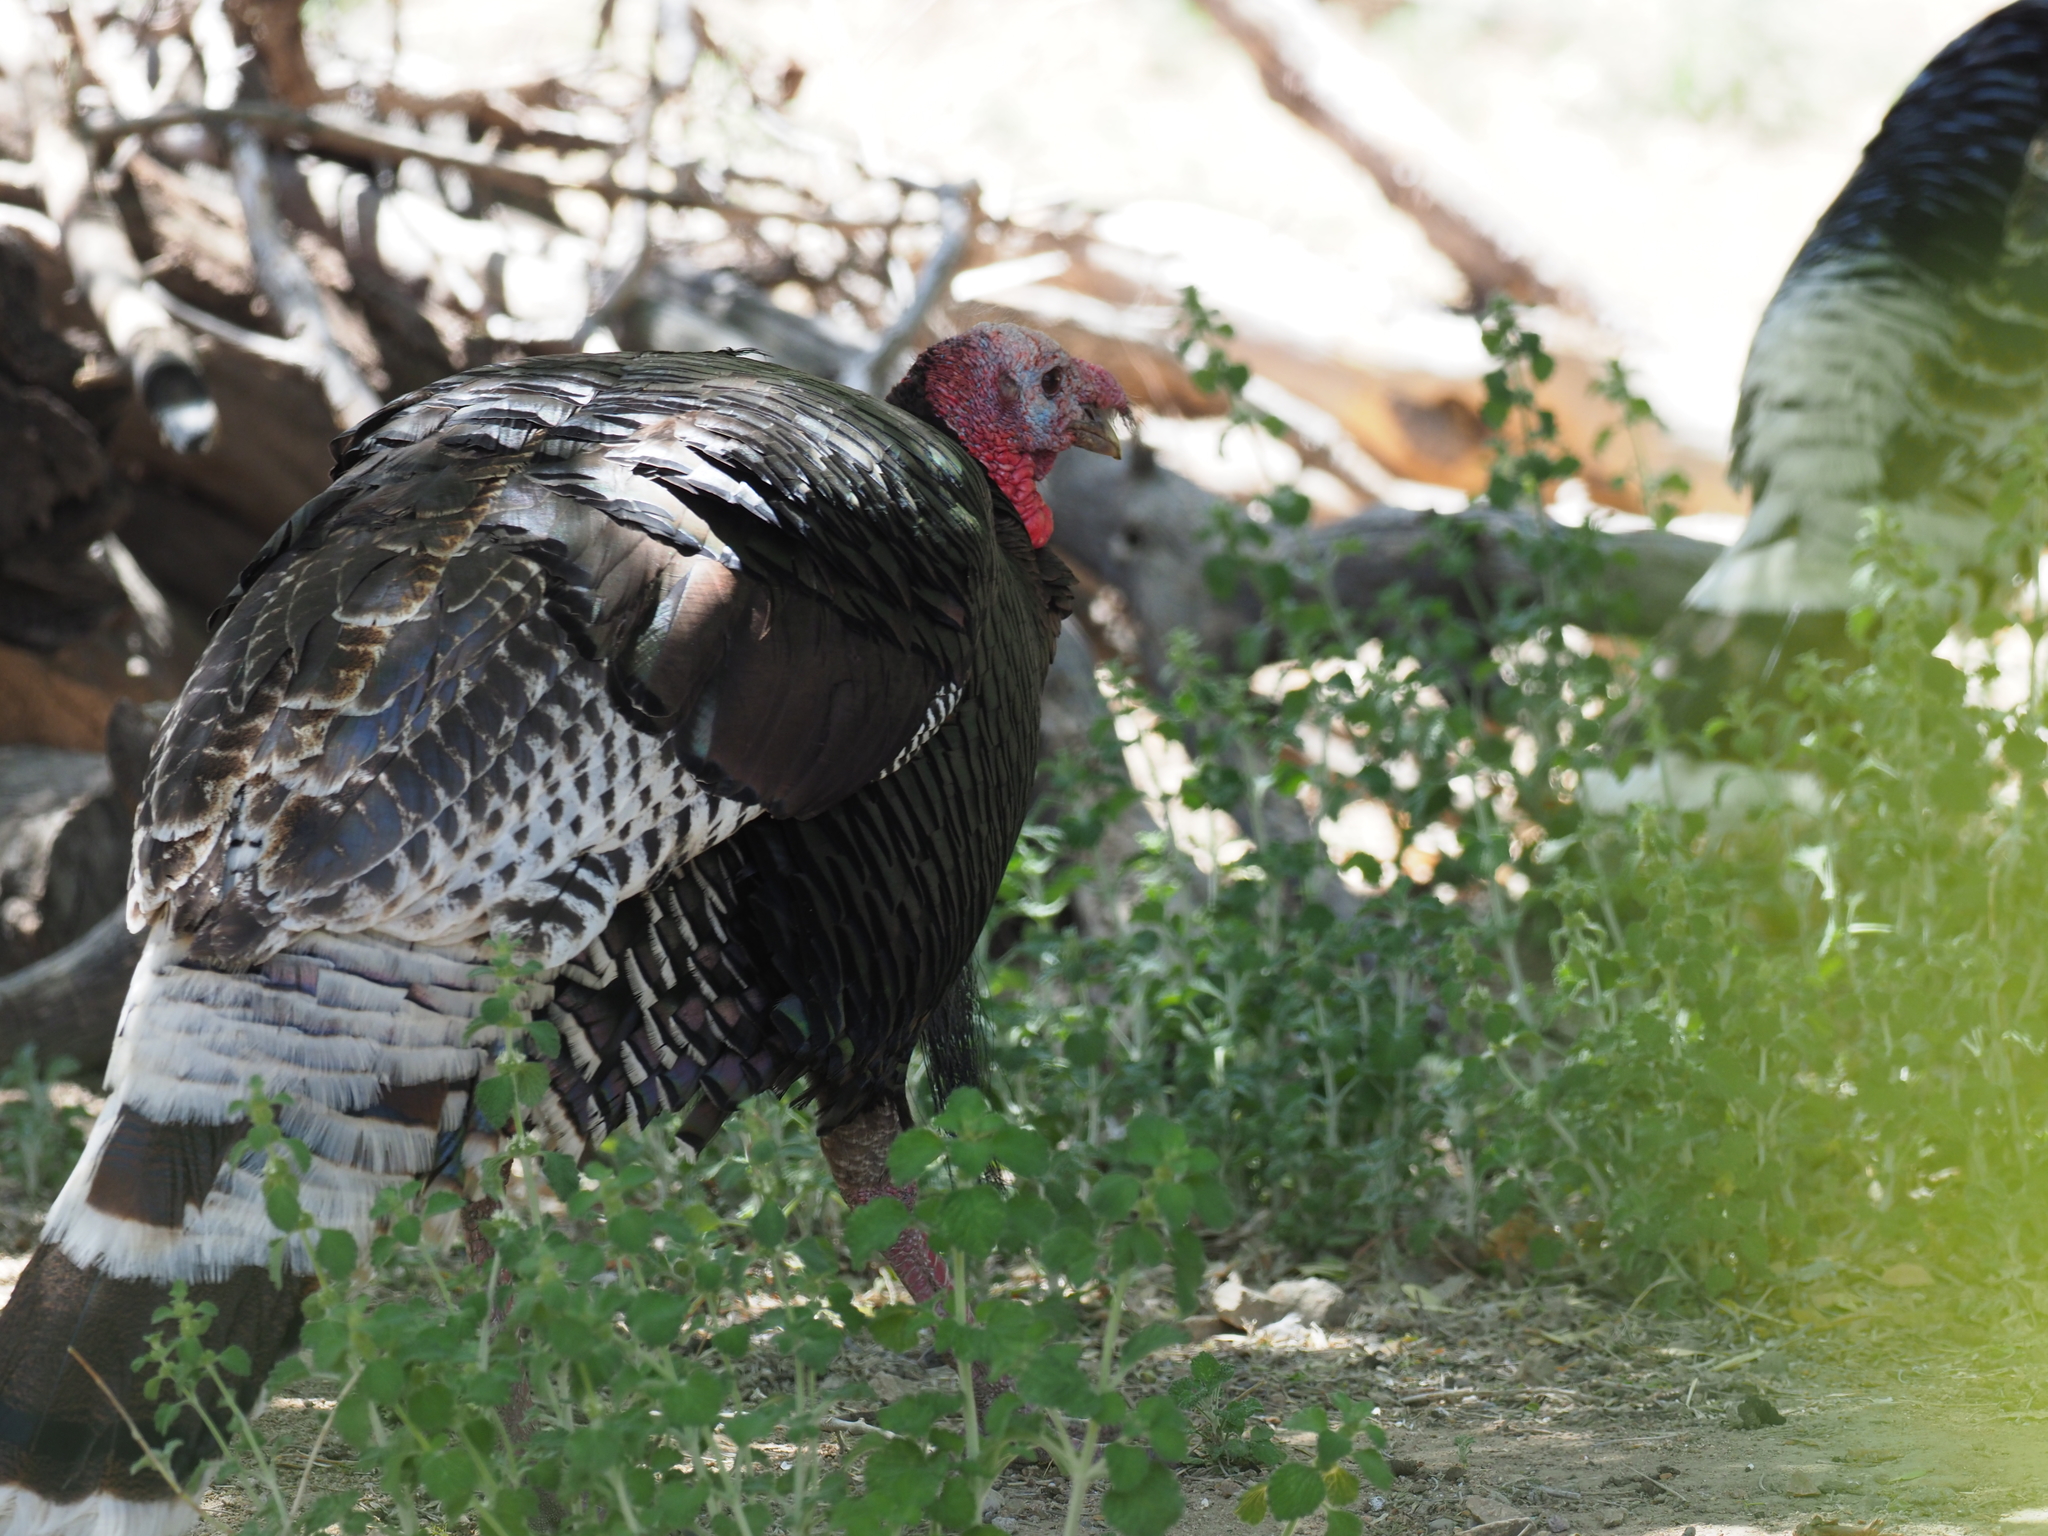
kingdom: Animalia
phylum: Chordata
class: Aves
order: Galliformes
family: Phasianidae
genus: Meleagris
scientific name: Meleagris gallopavo
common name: Wild turkey
